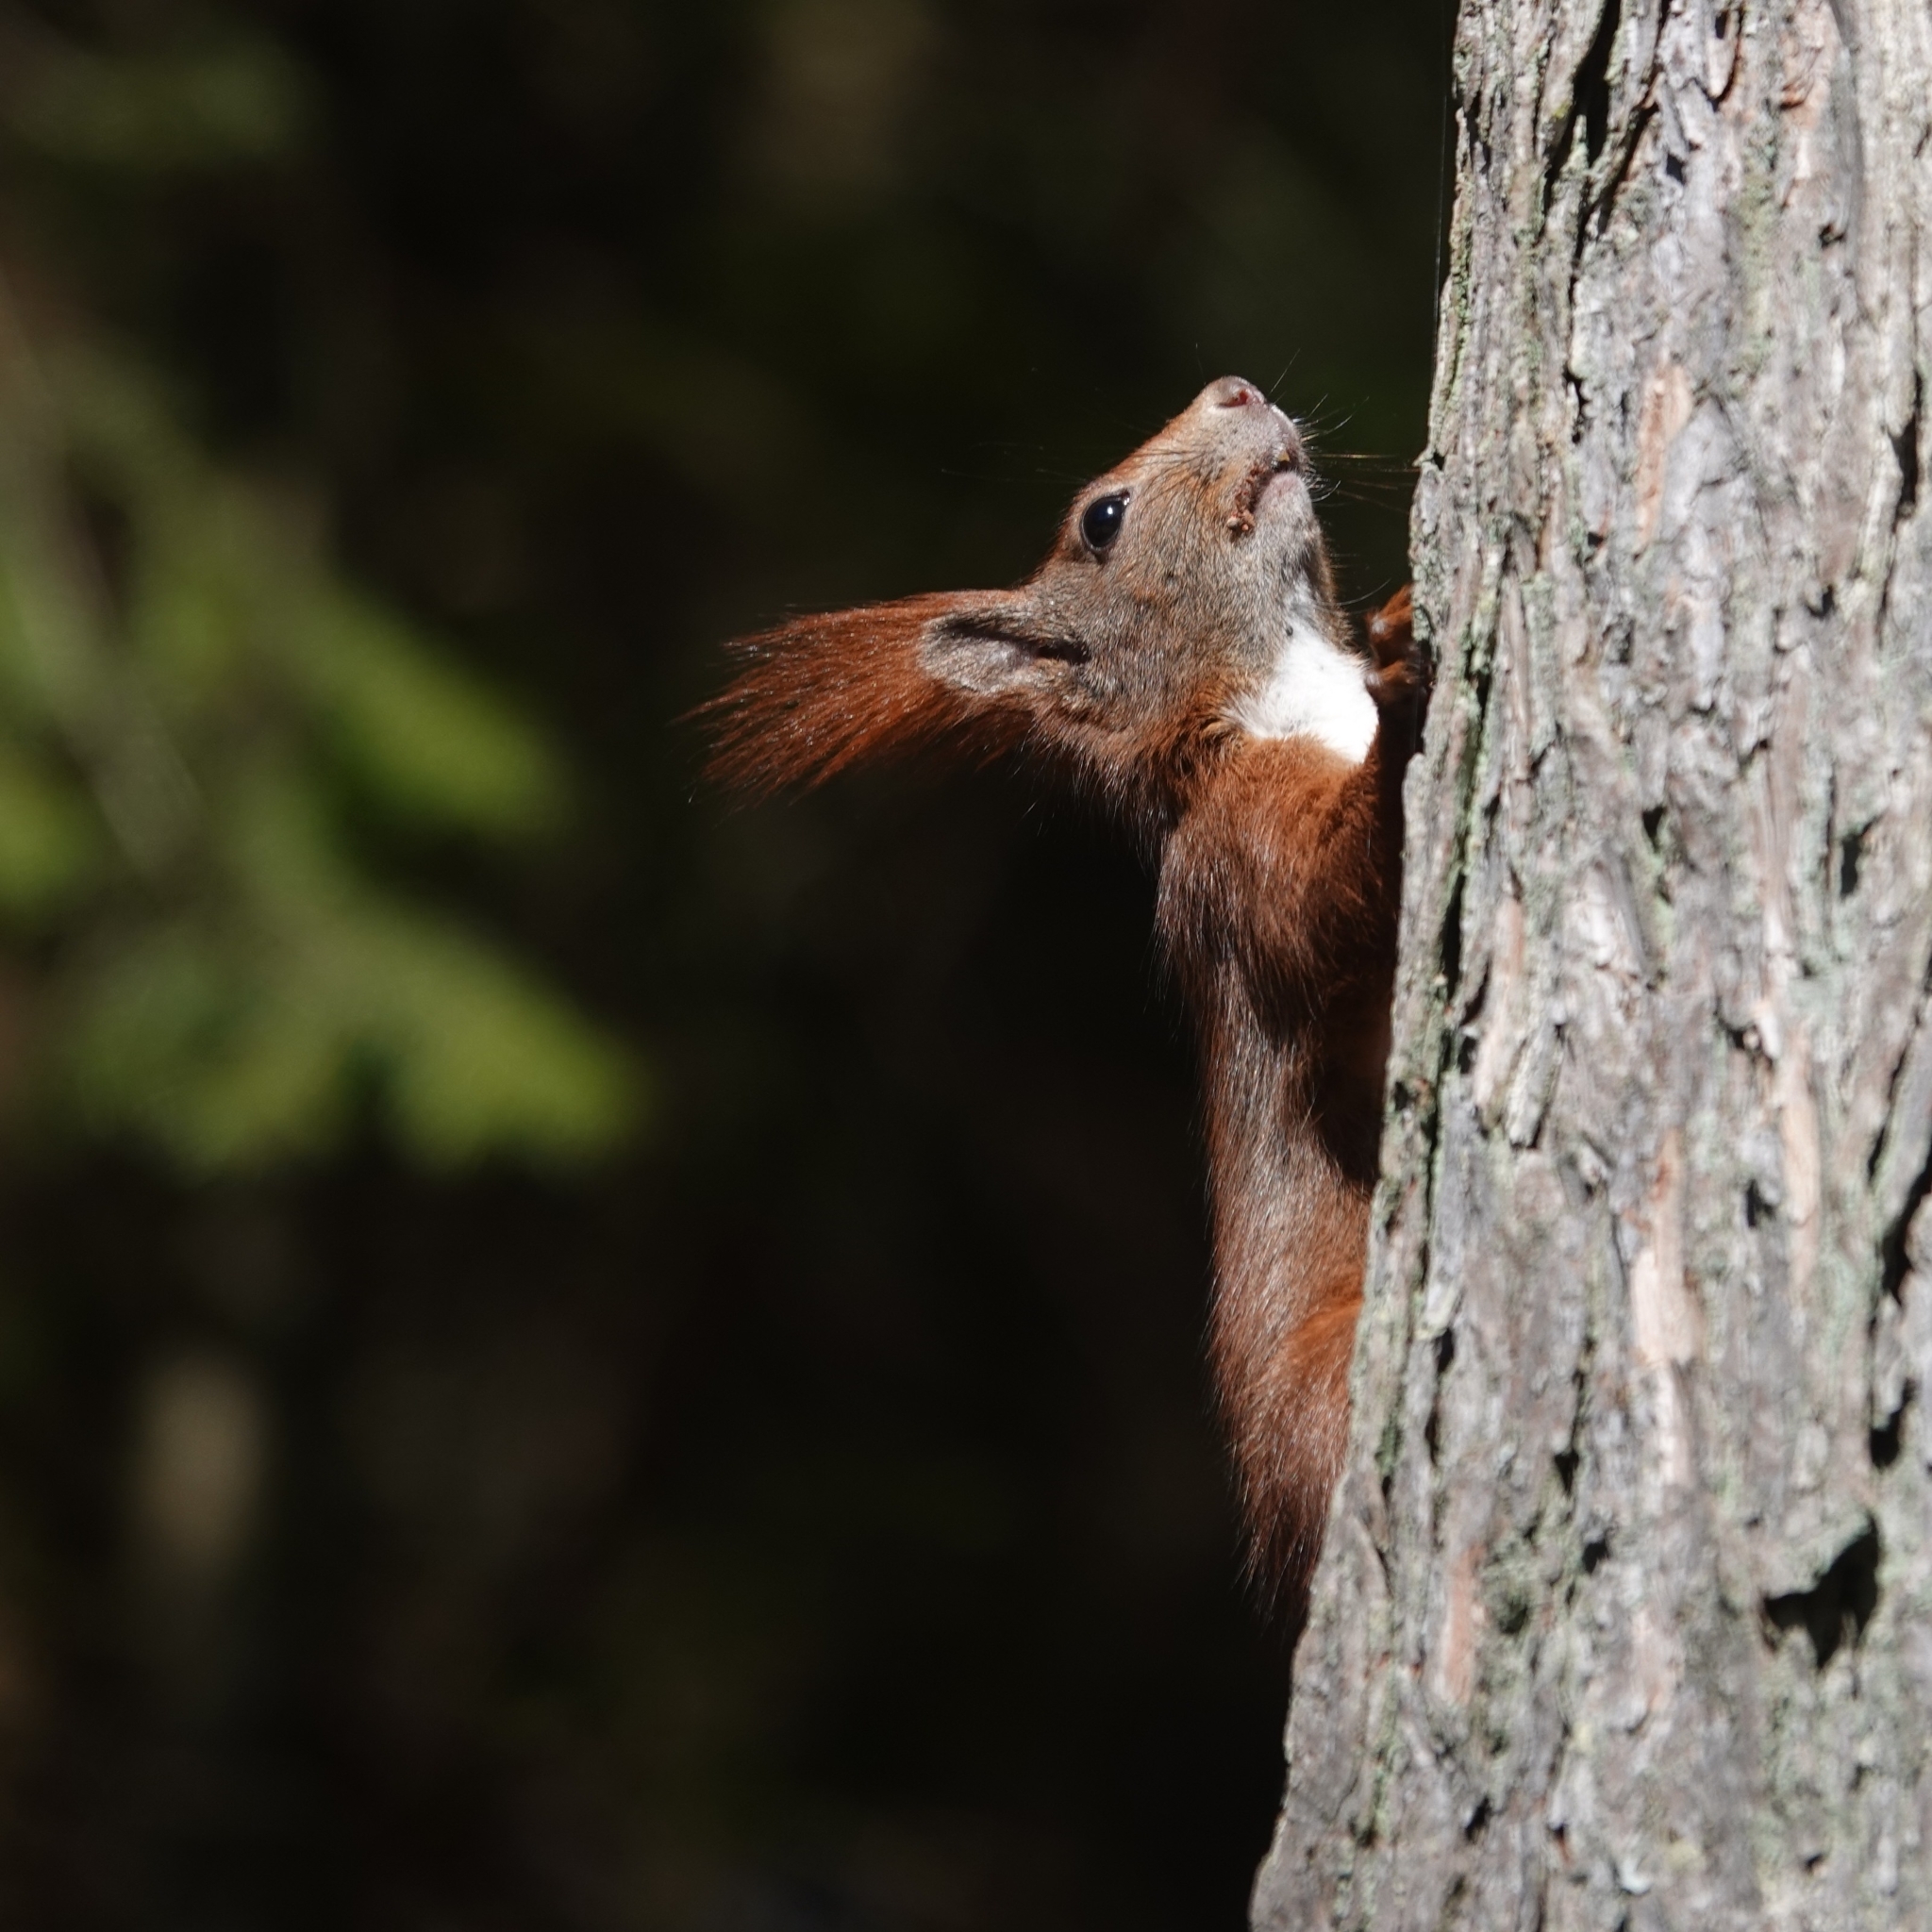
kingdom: Animalia
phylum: Chordata
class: Mammalia
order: Rodentia
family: Sciuridae
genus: Sciurus
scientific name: Sciurus vulgaris
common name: Eurasian red squirrel
